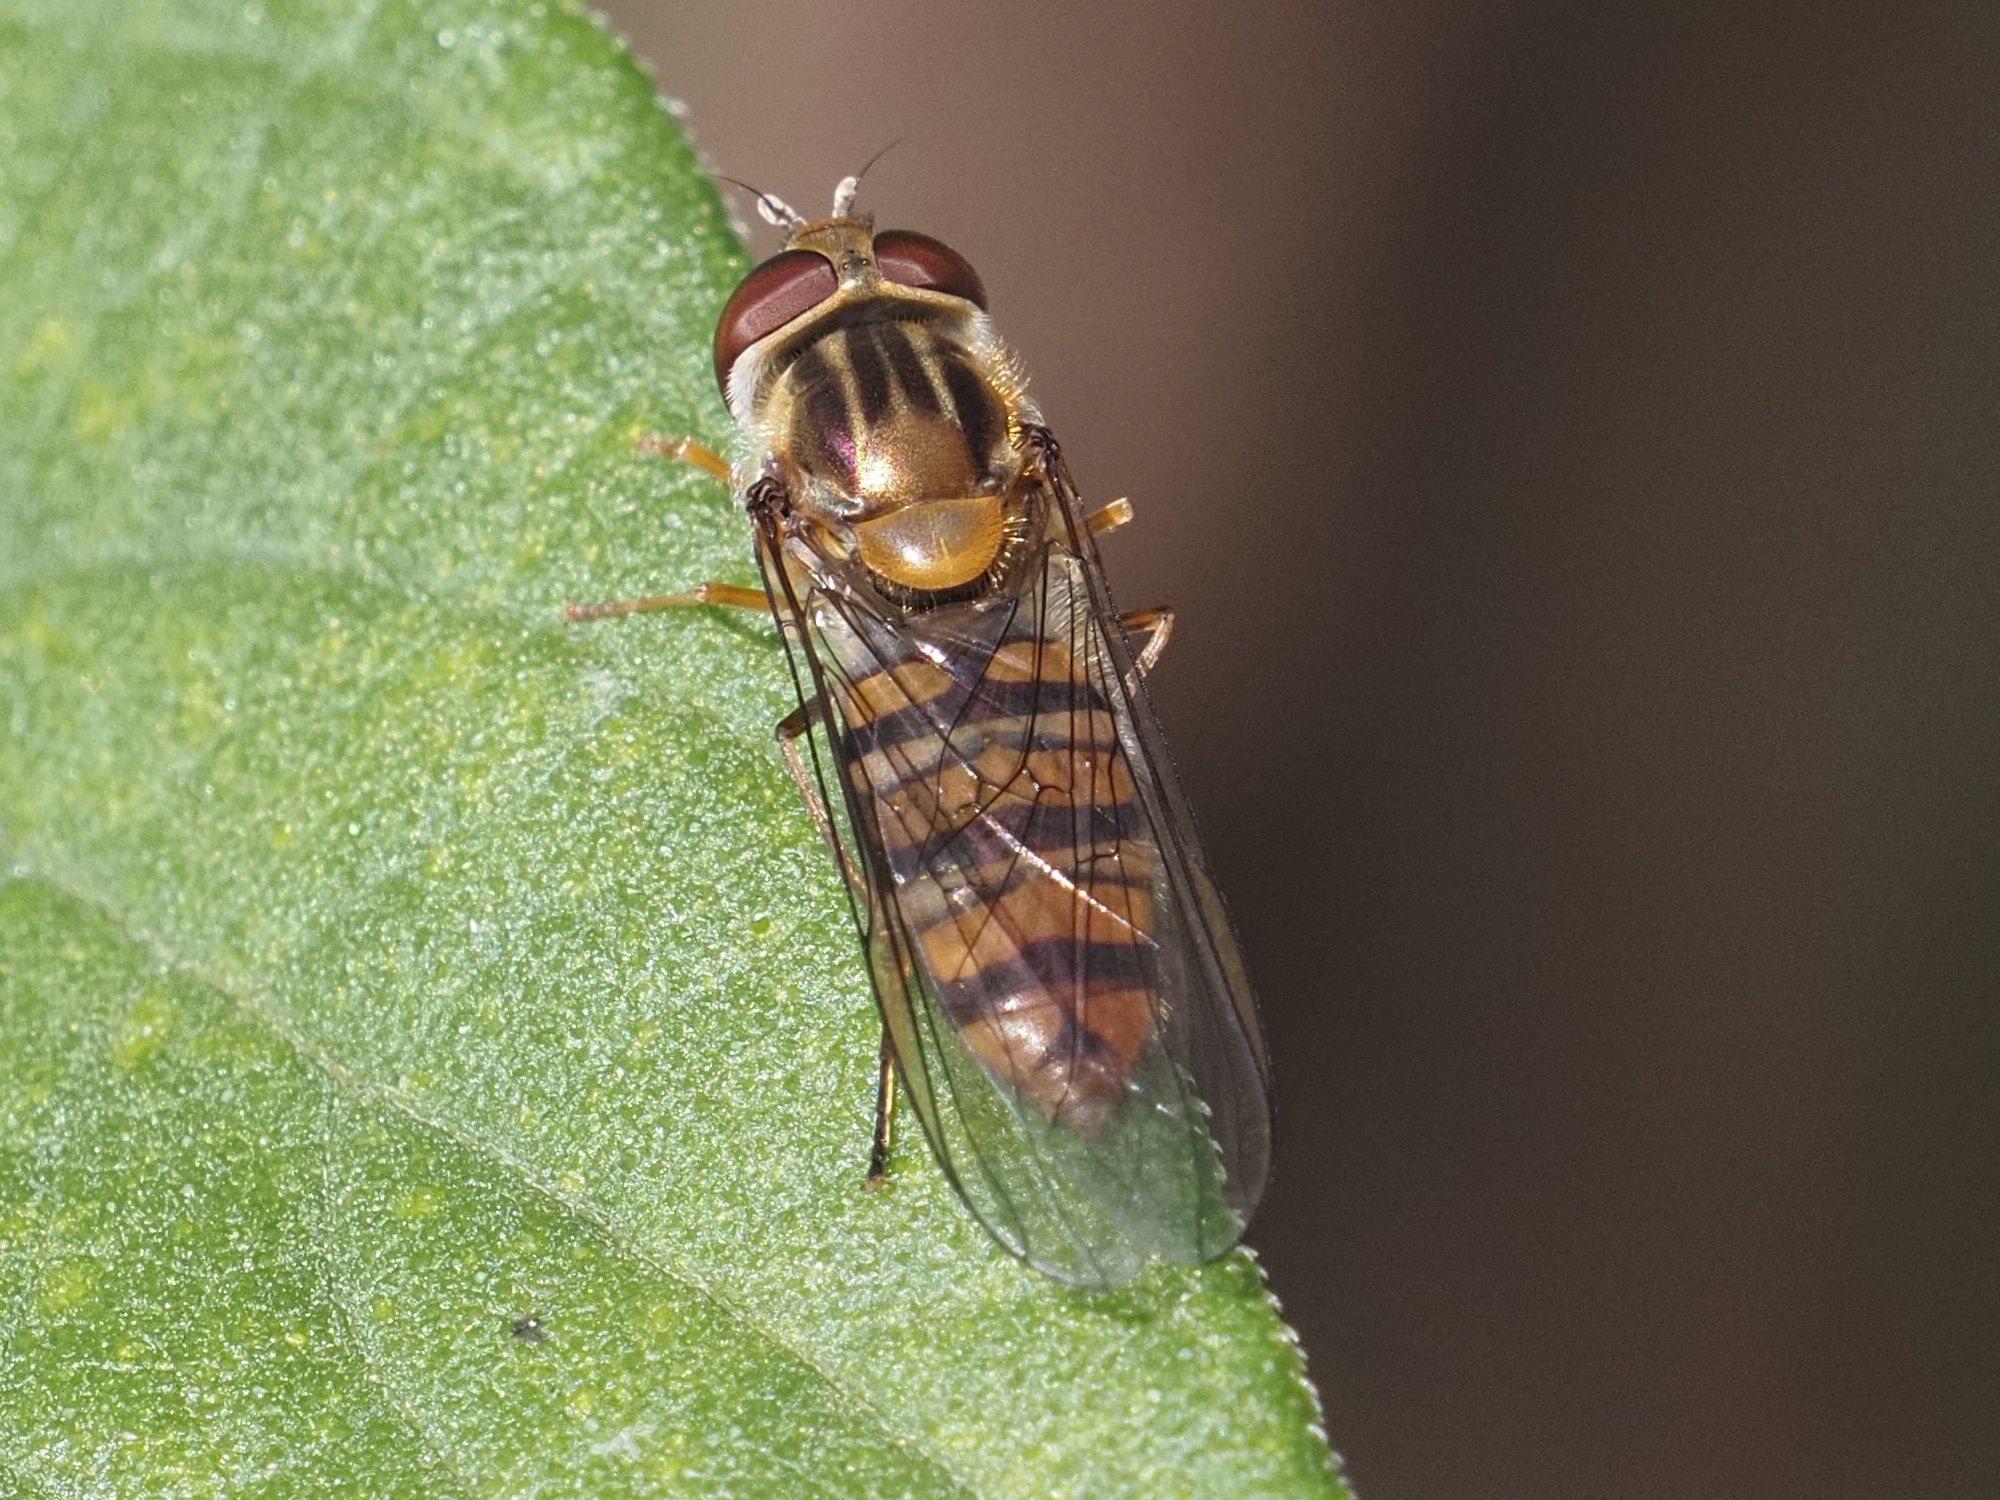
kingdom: Animalia
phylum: Arthropoda
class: Insecta
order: Diptera
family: Syrphidae
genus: Episyrphus
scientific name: Episyrphus balteatus
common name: Marmalade hoverfly
